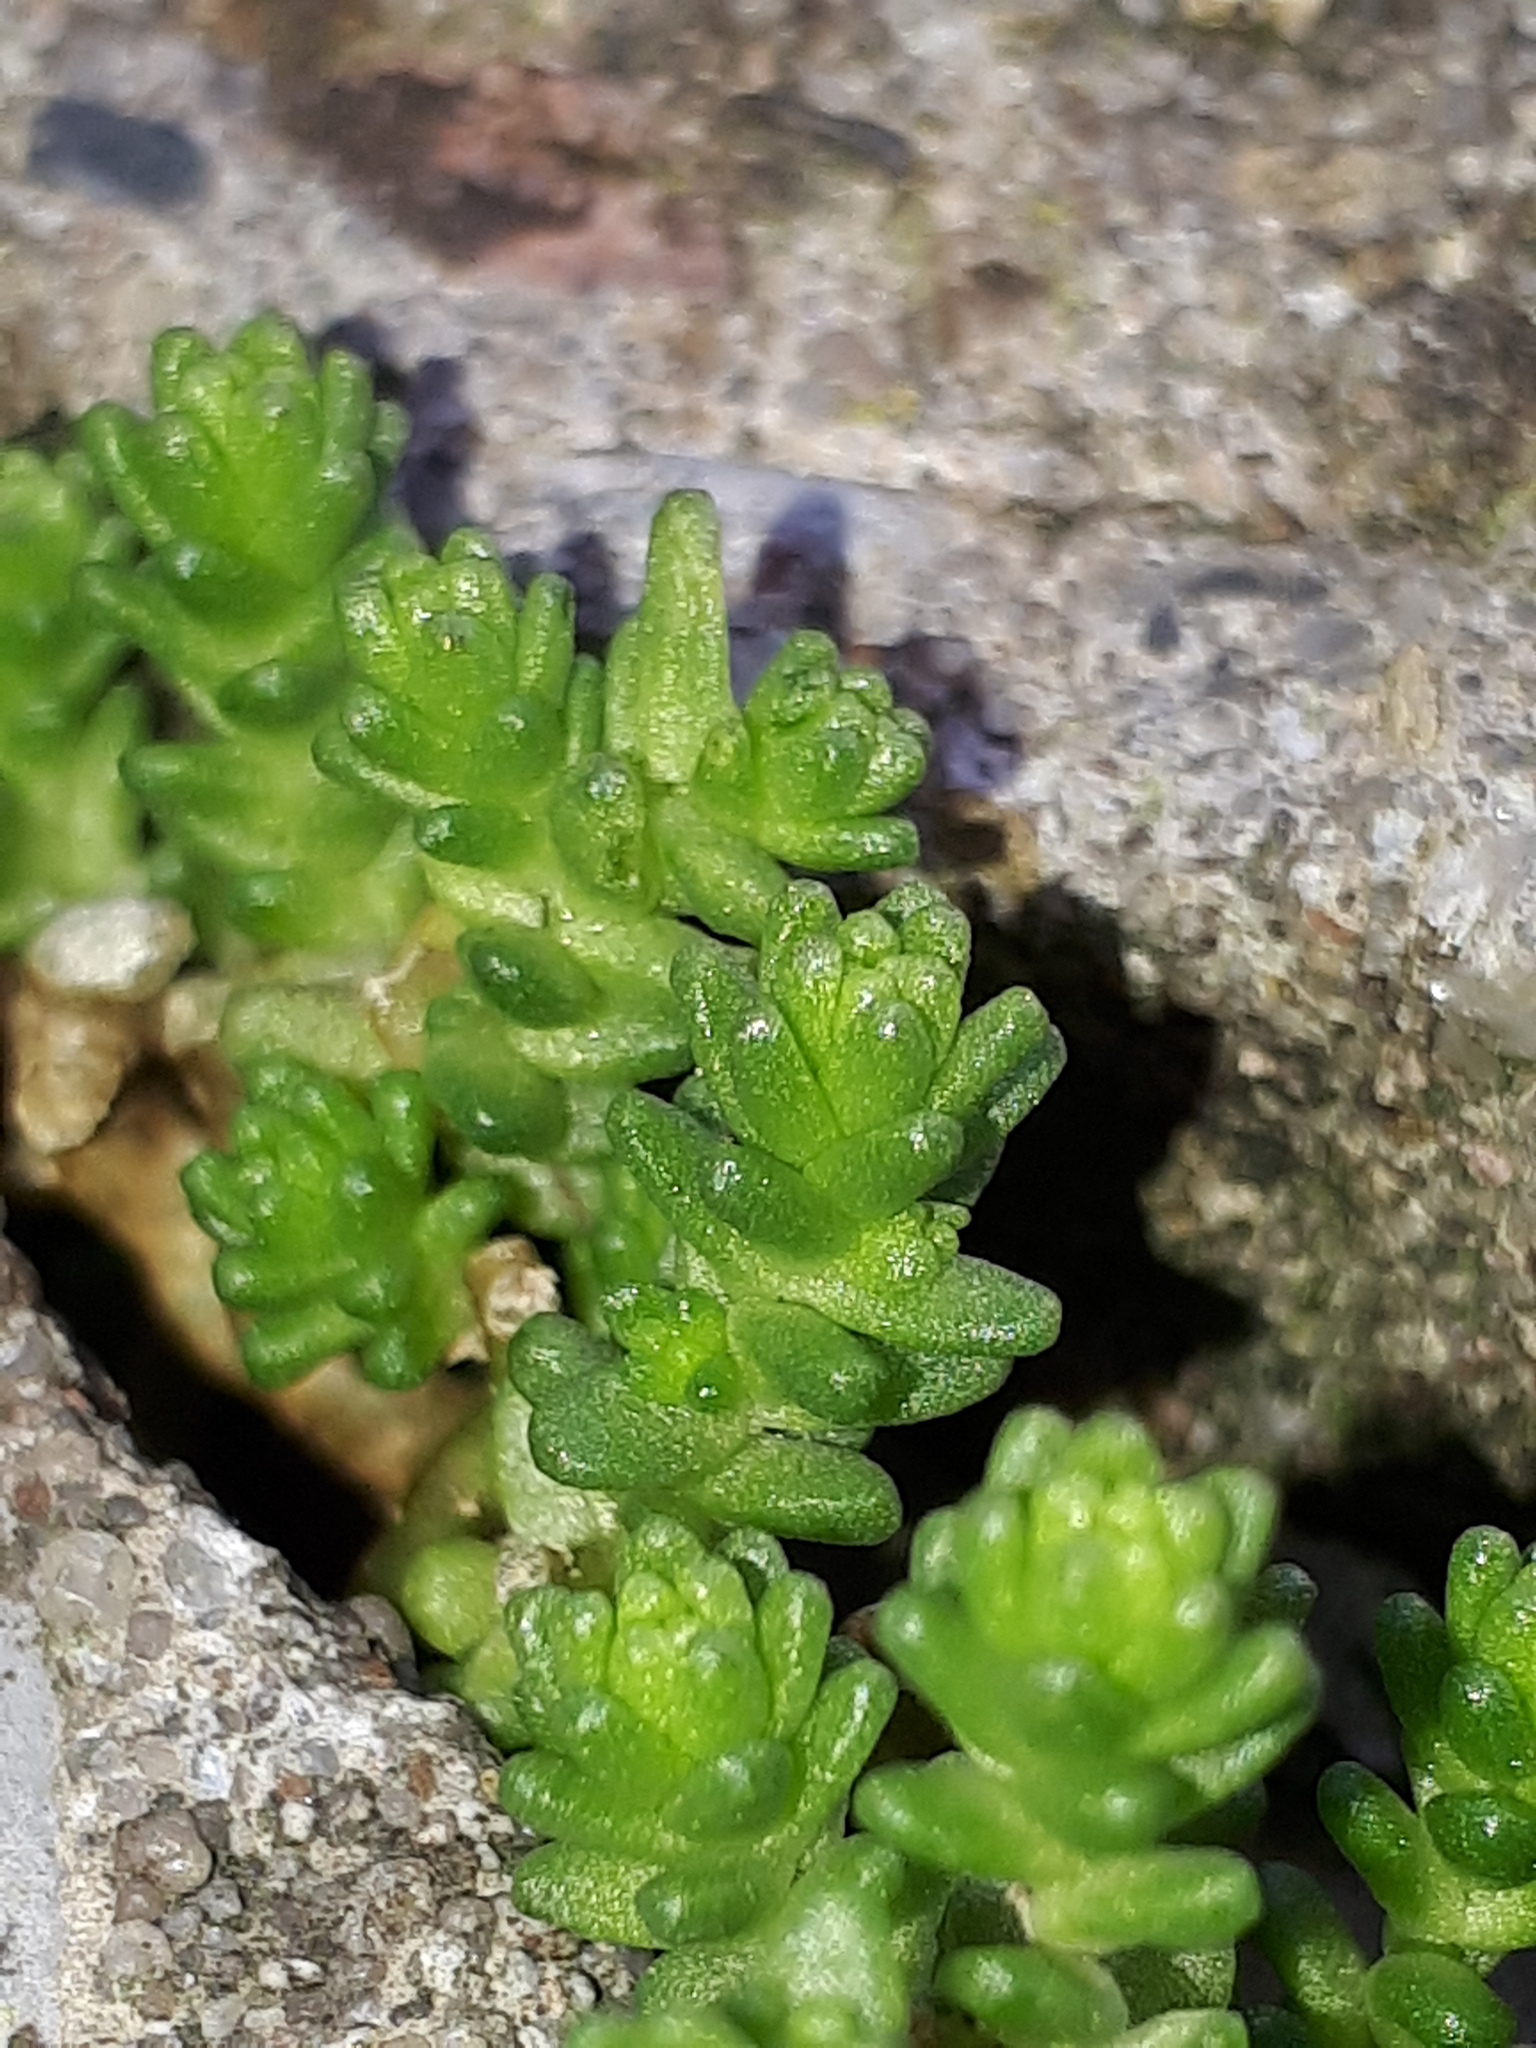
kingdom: Plantae
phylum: Tracheophyta
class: Magnoliopsida
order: Saxifragales
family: Crassulaceae
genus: Sedum
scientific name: Sedum acre
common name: Biting stonecrop
